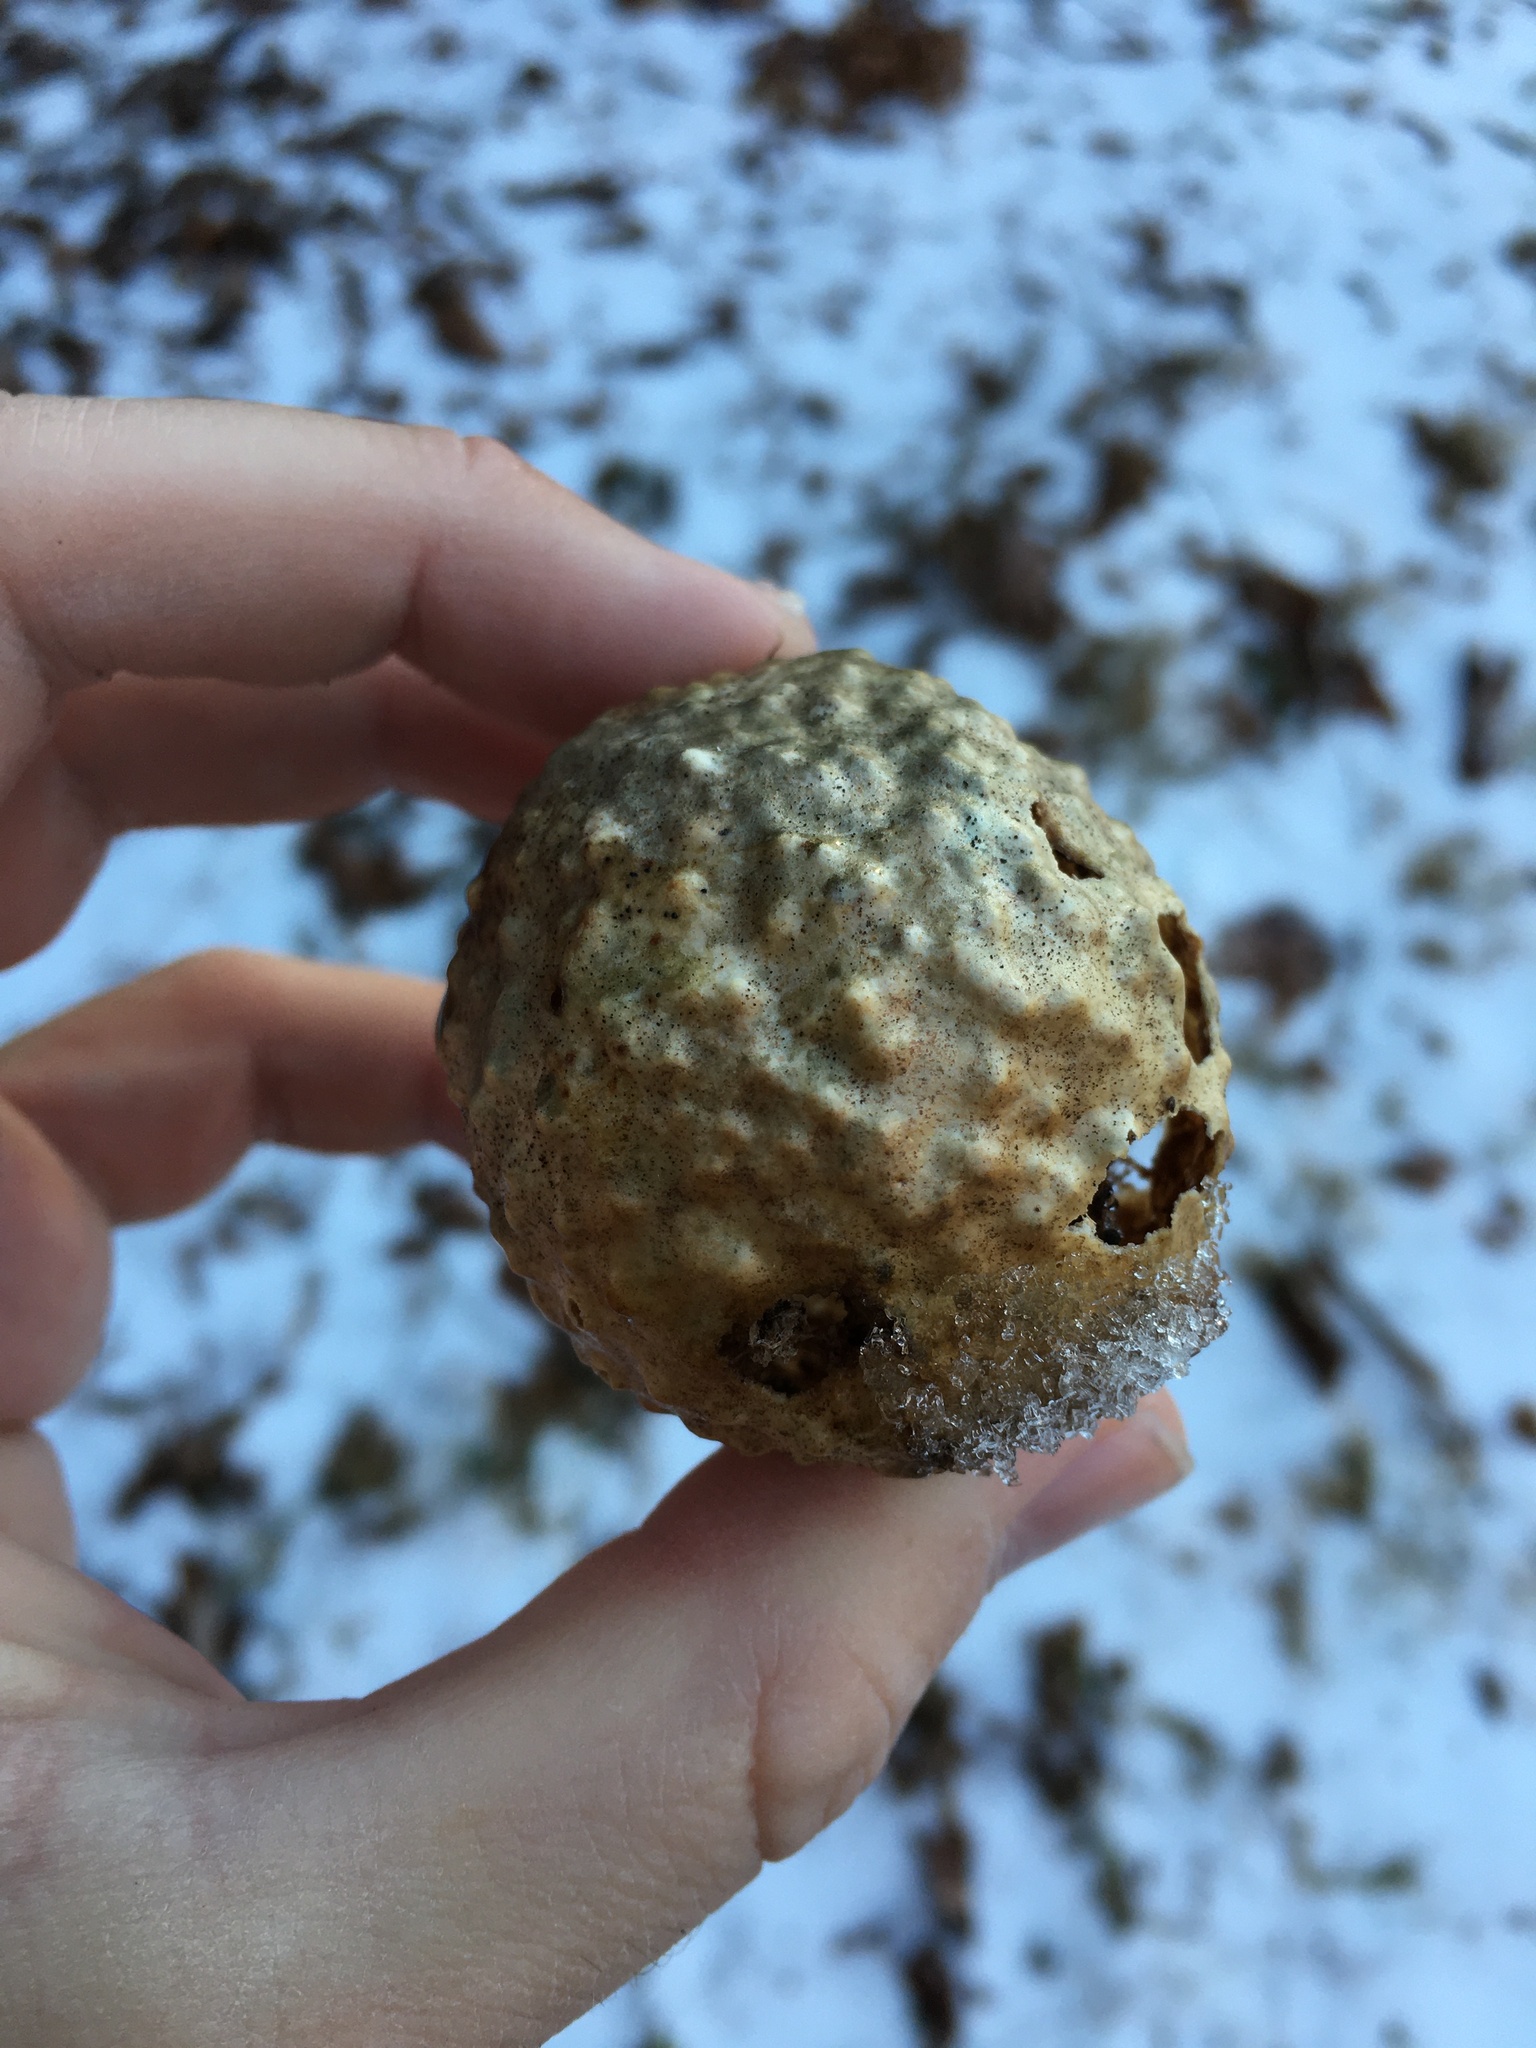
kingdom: Animalia
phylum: Arthropoda
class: Insecta
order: Hymenoptera
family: Cynipidae
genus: Amphibolips
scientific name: Amphibolips
